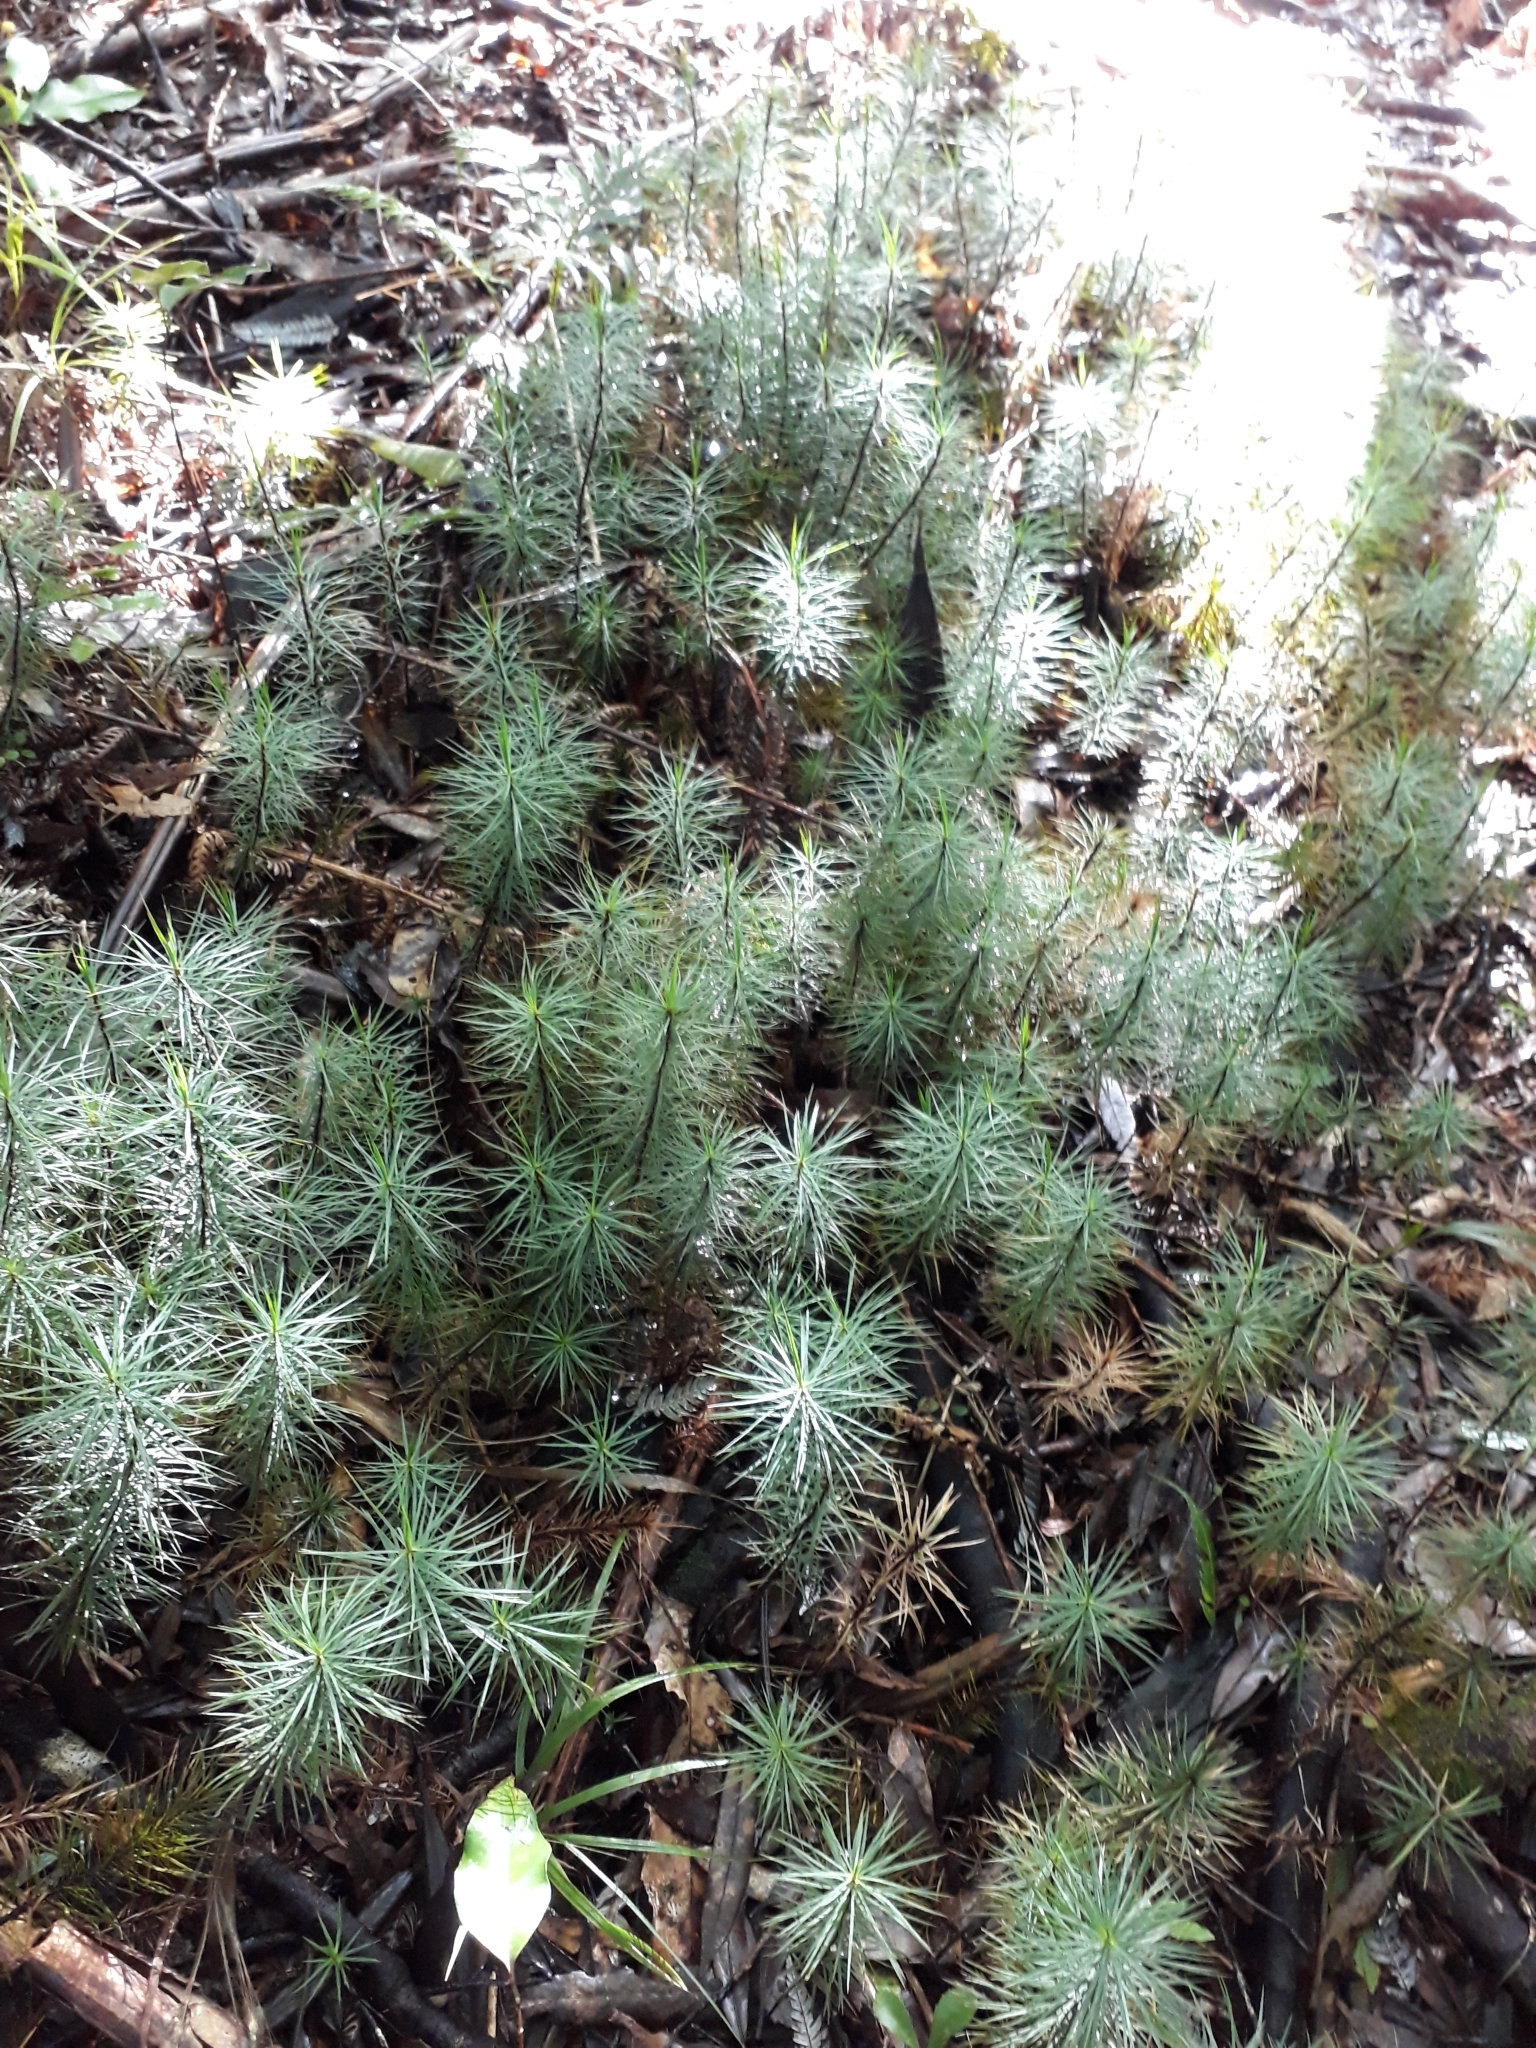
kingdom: Plantae
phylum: Bryophyta
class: Polytrichopsida
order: Polytrichales
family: Polytrichaceae
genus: Dawsonia
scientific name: Dawsonia superba
